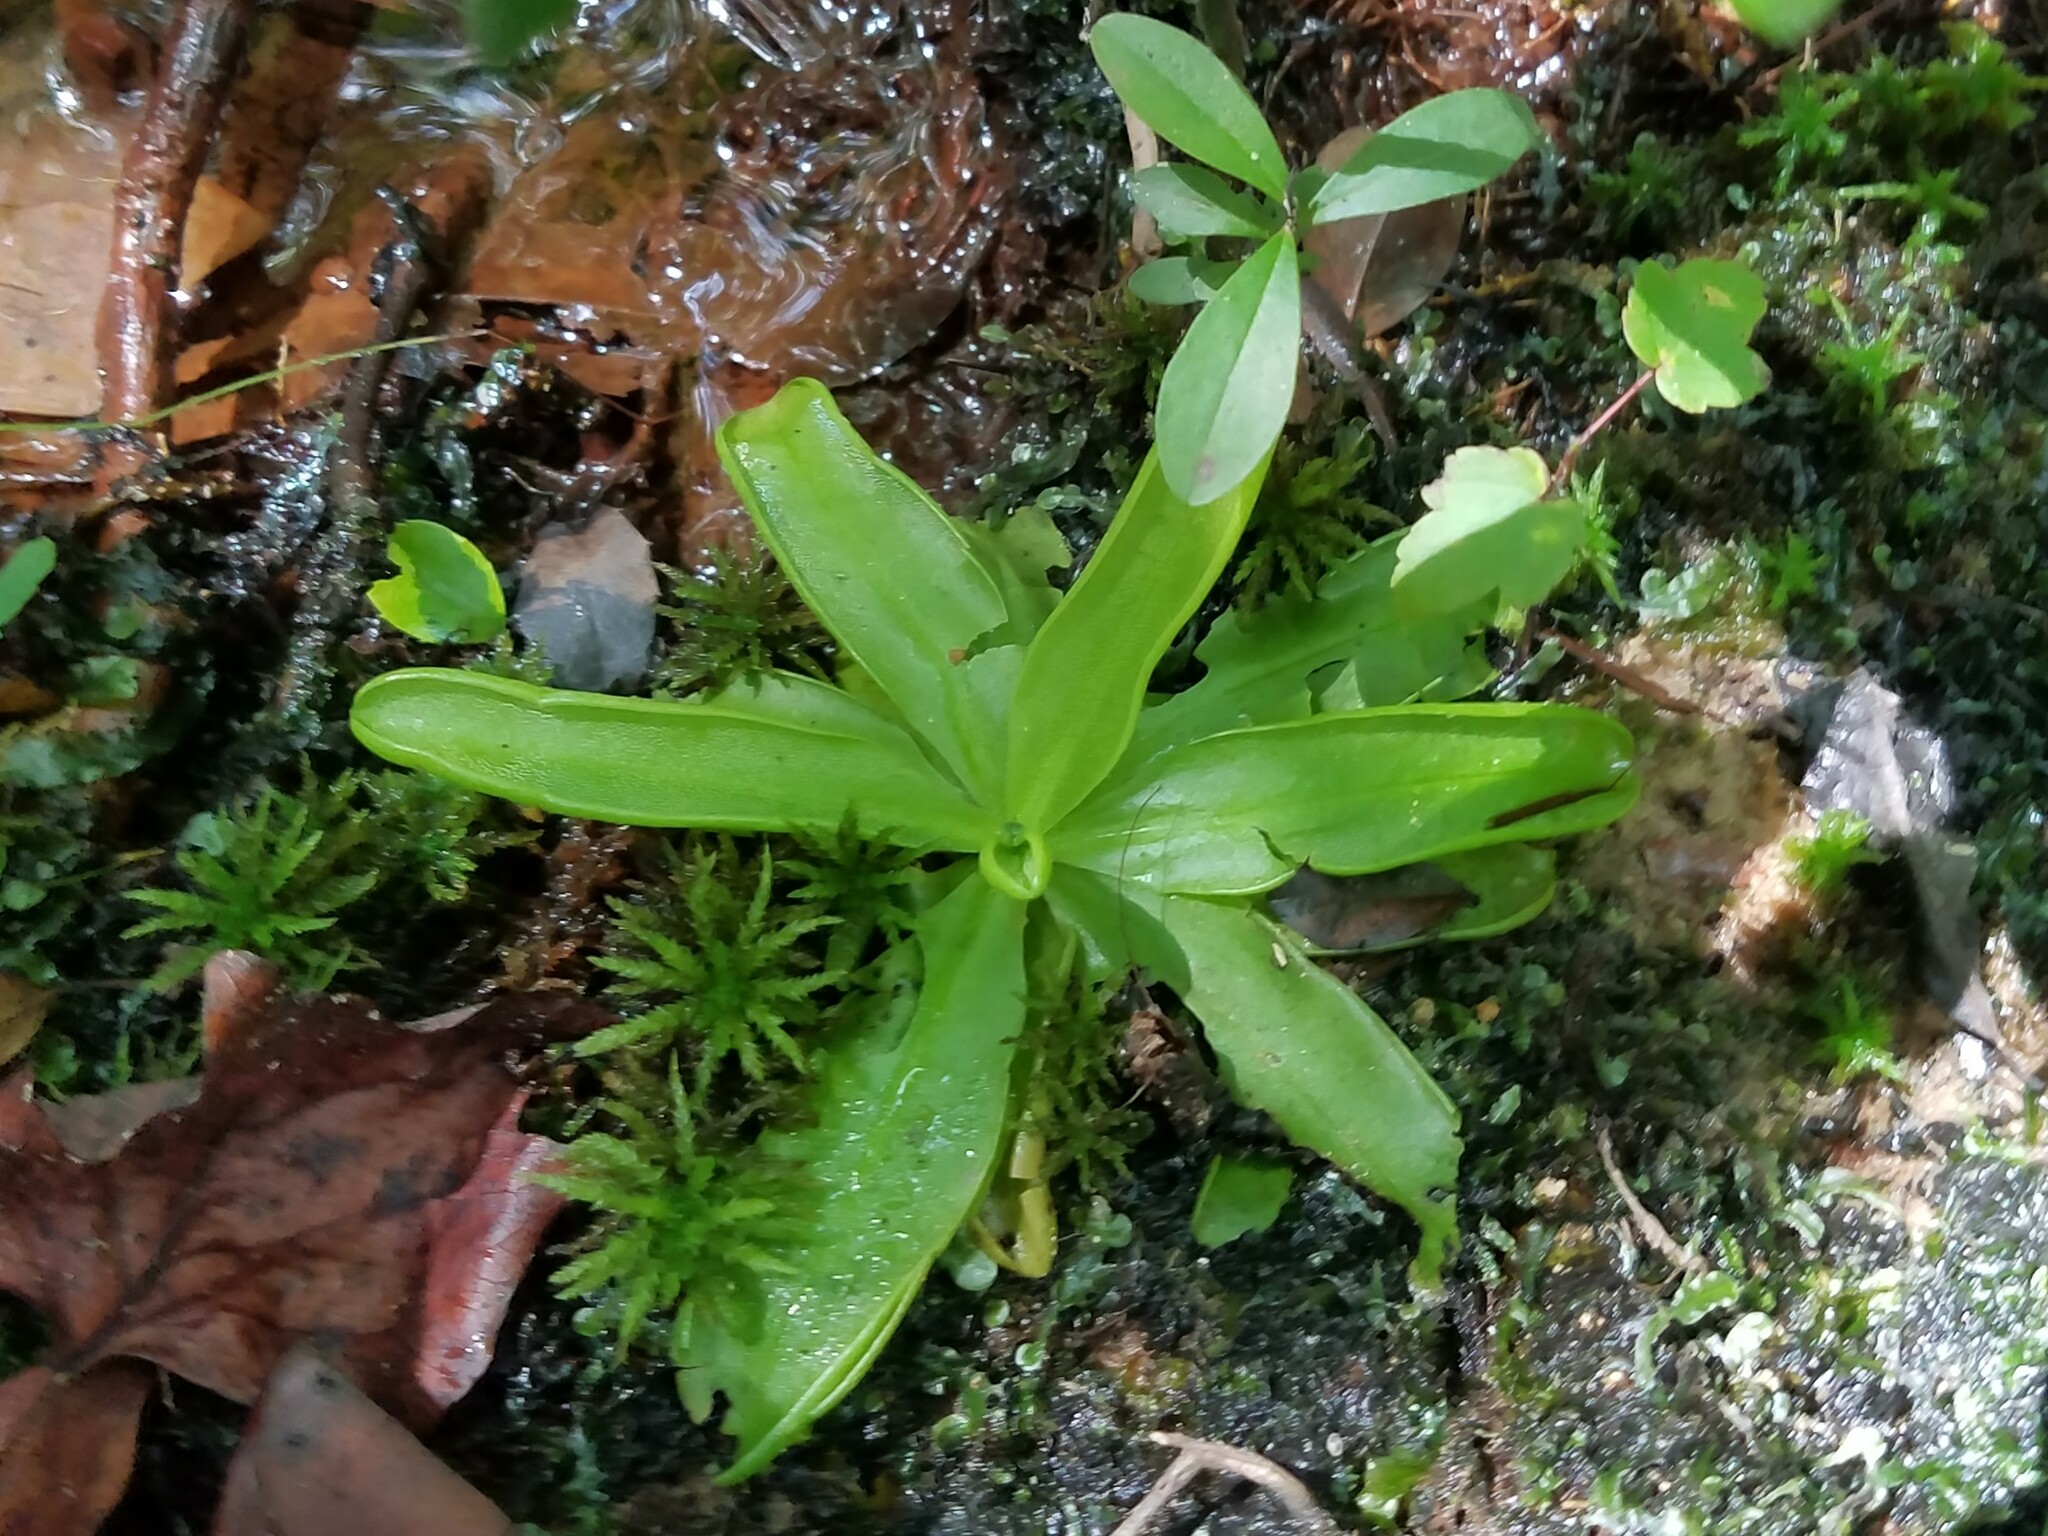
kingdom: Plantae
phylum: Tracheophyta
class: Magnoliopsida
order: Lamiales
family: Lentibulariaceae
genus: Pinguicula
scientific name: Pinguicula primuliflora
